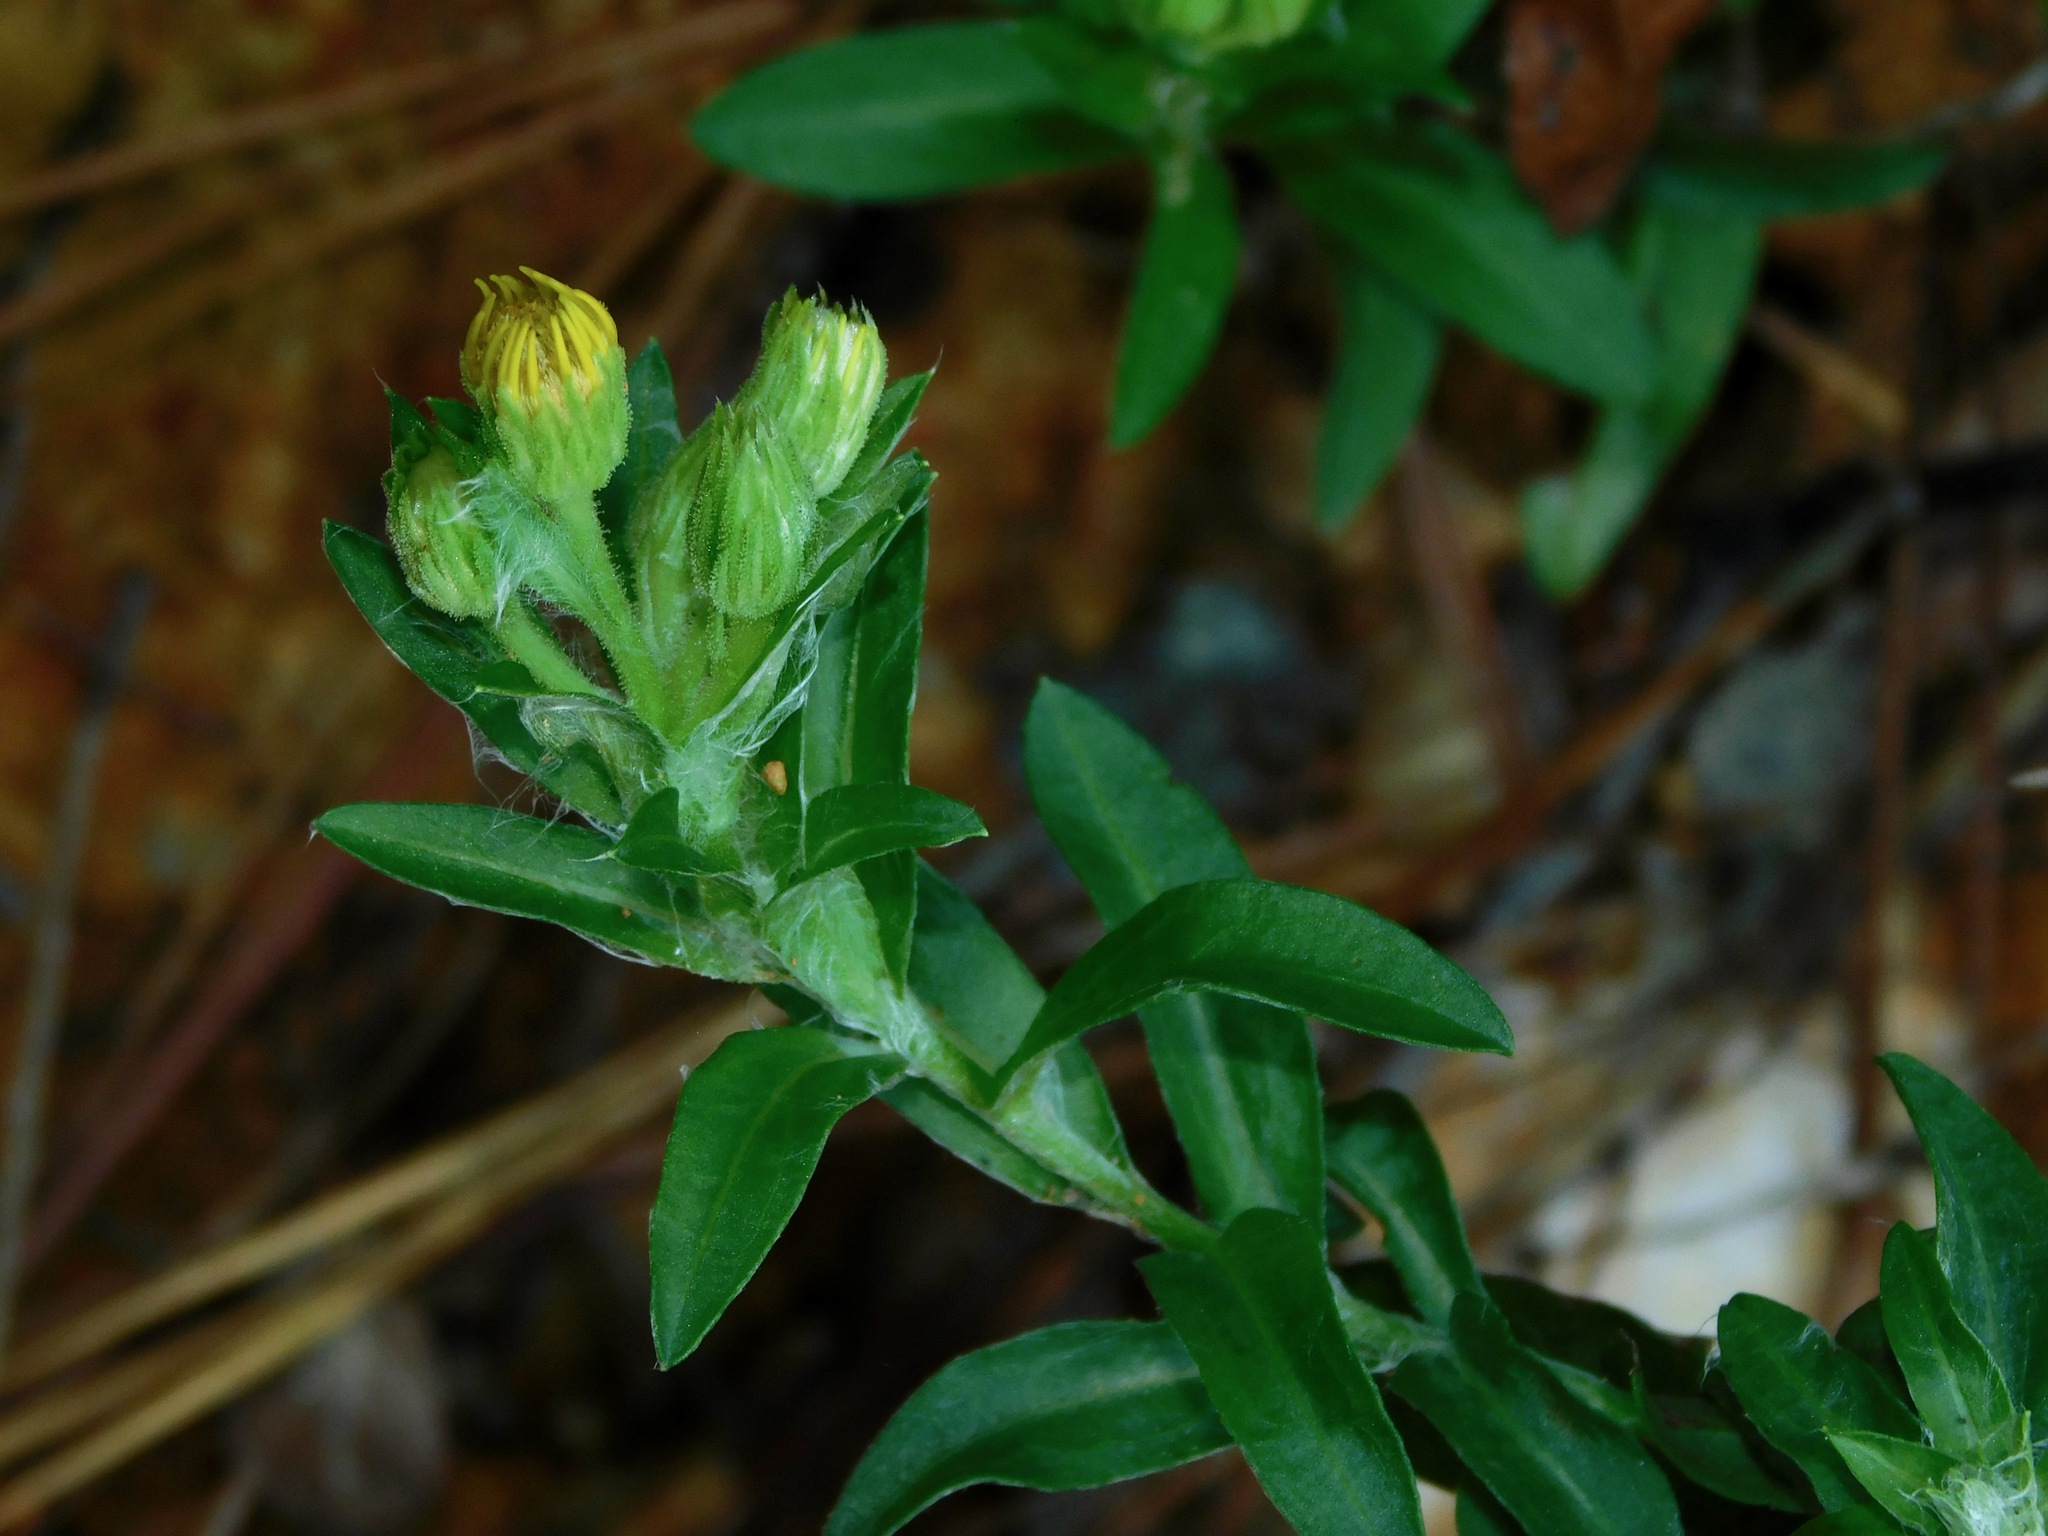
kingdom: Plantae
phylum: Tracheophyta
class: Magnoliopsida
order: Asterales
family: Asteraceae
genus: Chrysopsis
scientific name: Chrysopsis mariana
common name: Maryland golden-aster
